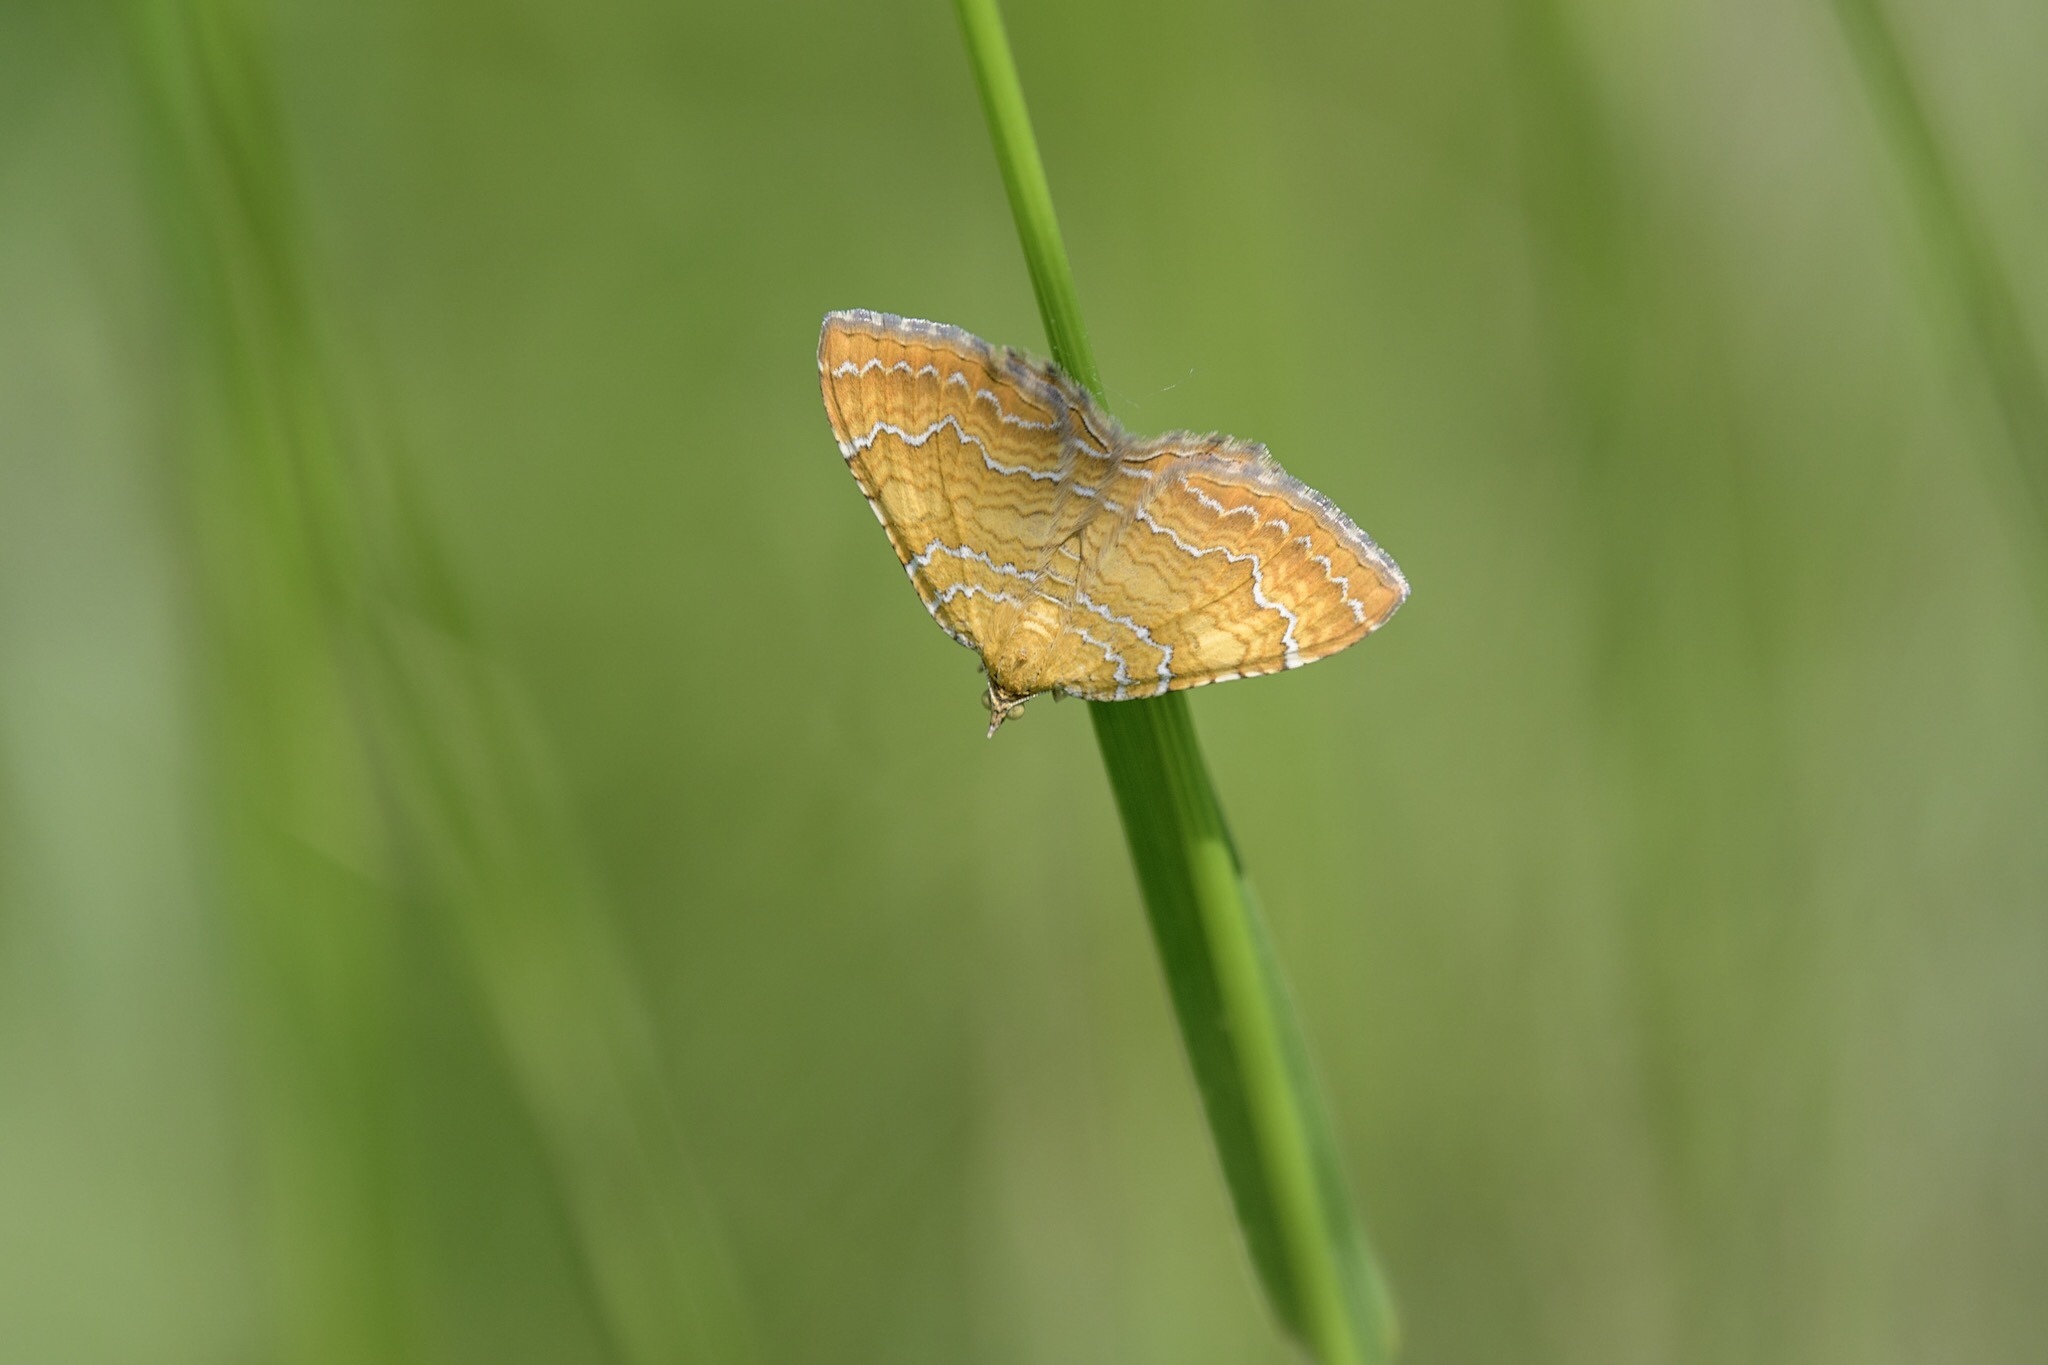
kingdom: Animalia
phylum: Arthropoda
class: Insecta
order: Lepidoptera
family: Geometridae
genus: Camptogramma
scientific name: Camptogramma bilineata
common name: Yellow shell
